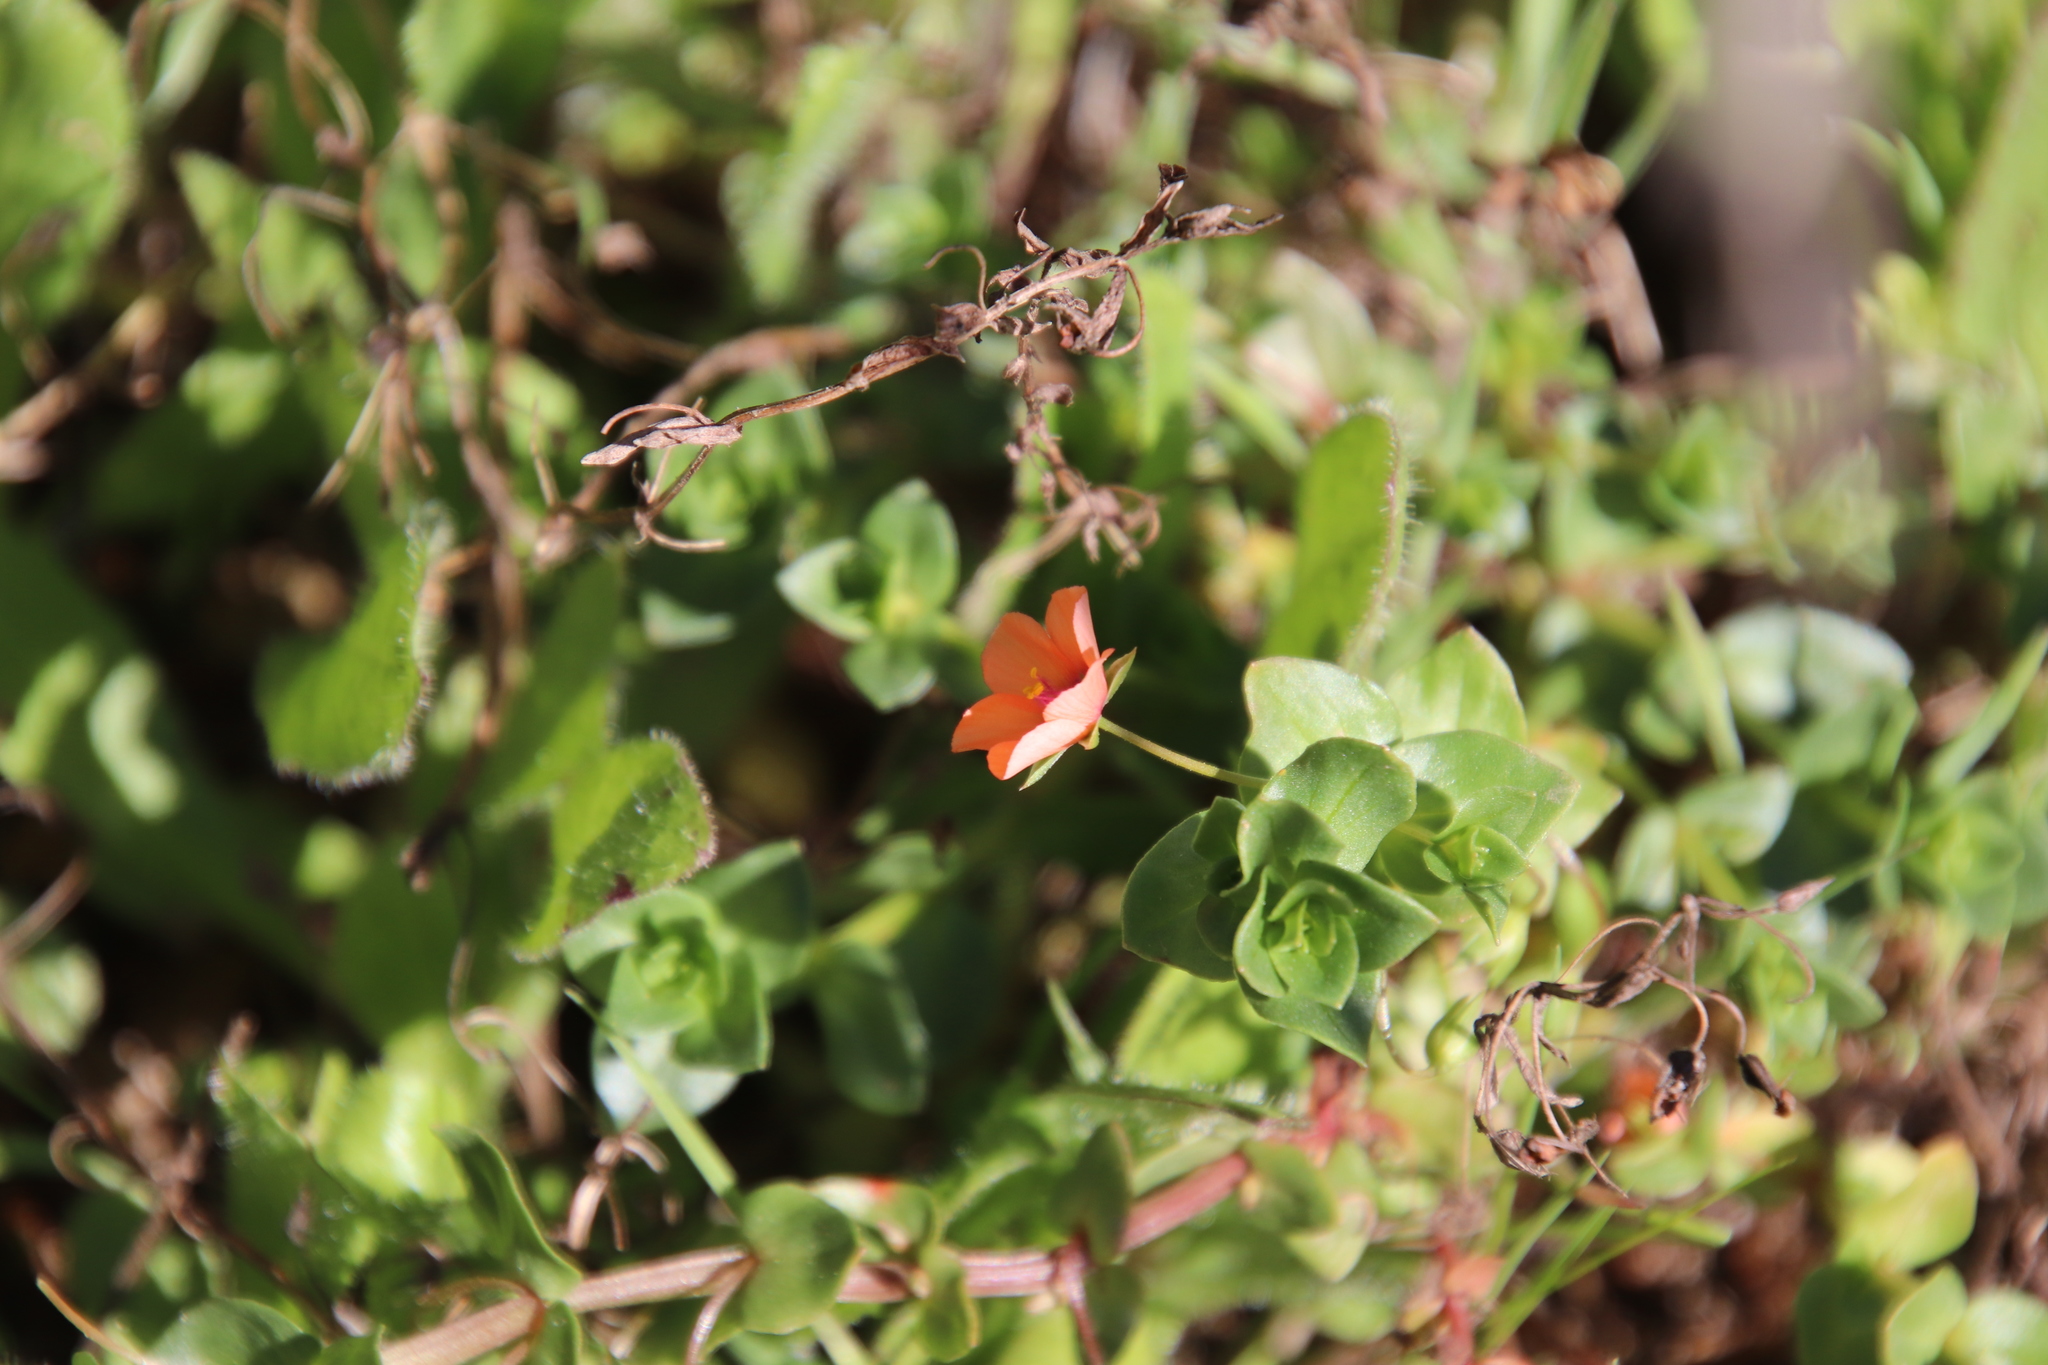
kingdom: Plantae
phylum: Tracheophyta
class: Magnoliopsida
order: Ericales
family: Primulaceae
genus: Lysimachia
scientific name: Lysimachia arvensis
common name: Scarlet pimpernel
